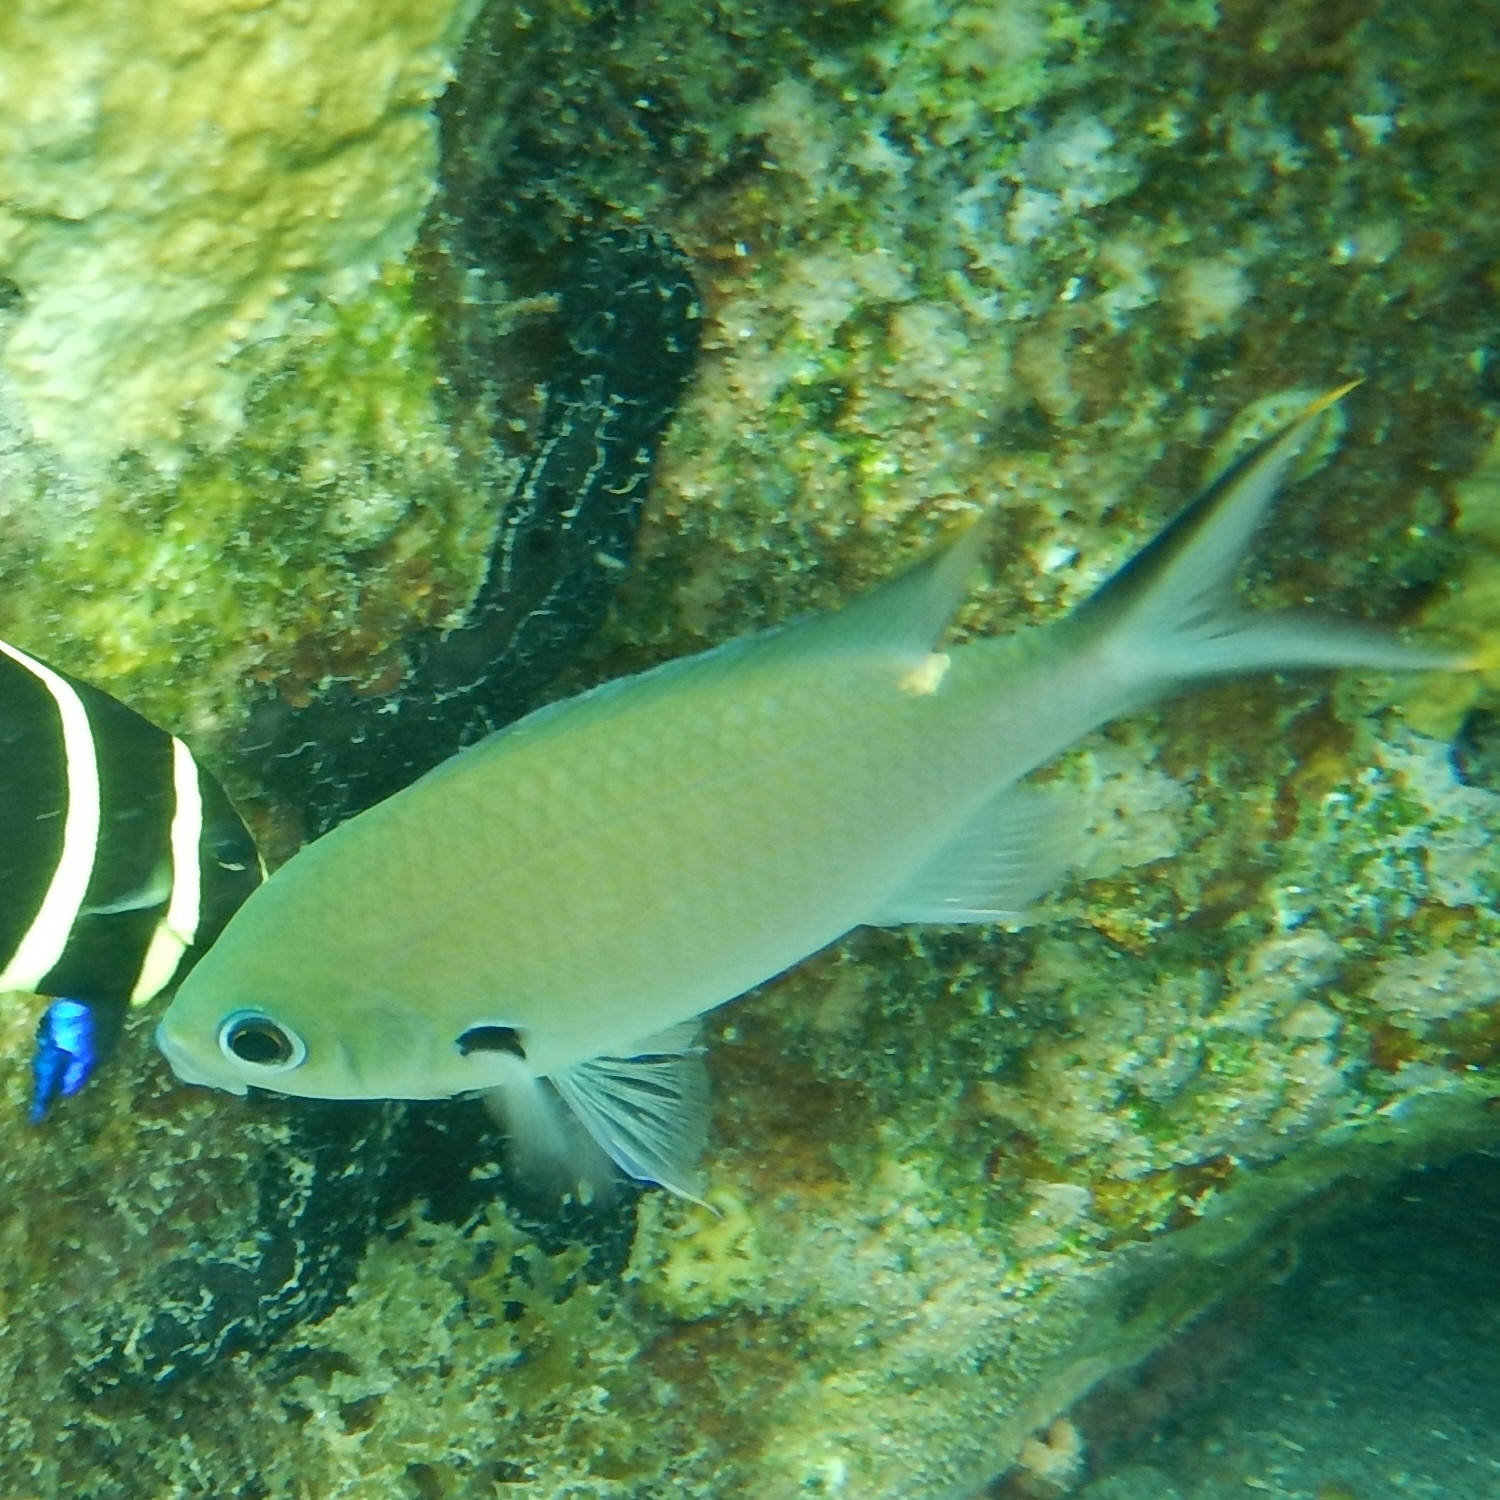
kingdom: Animalia
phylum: Chordata
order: Perciformes
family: Pomacentridae
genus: Chromis
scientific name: Chromis multilineata
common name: Brown chromis
